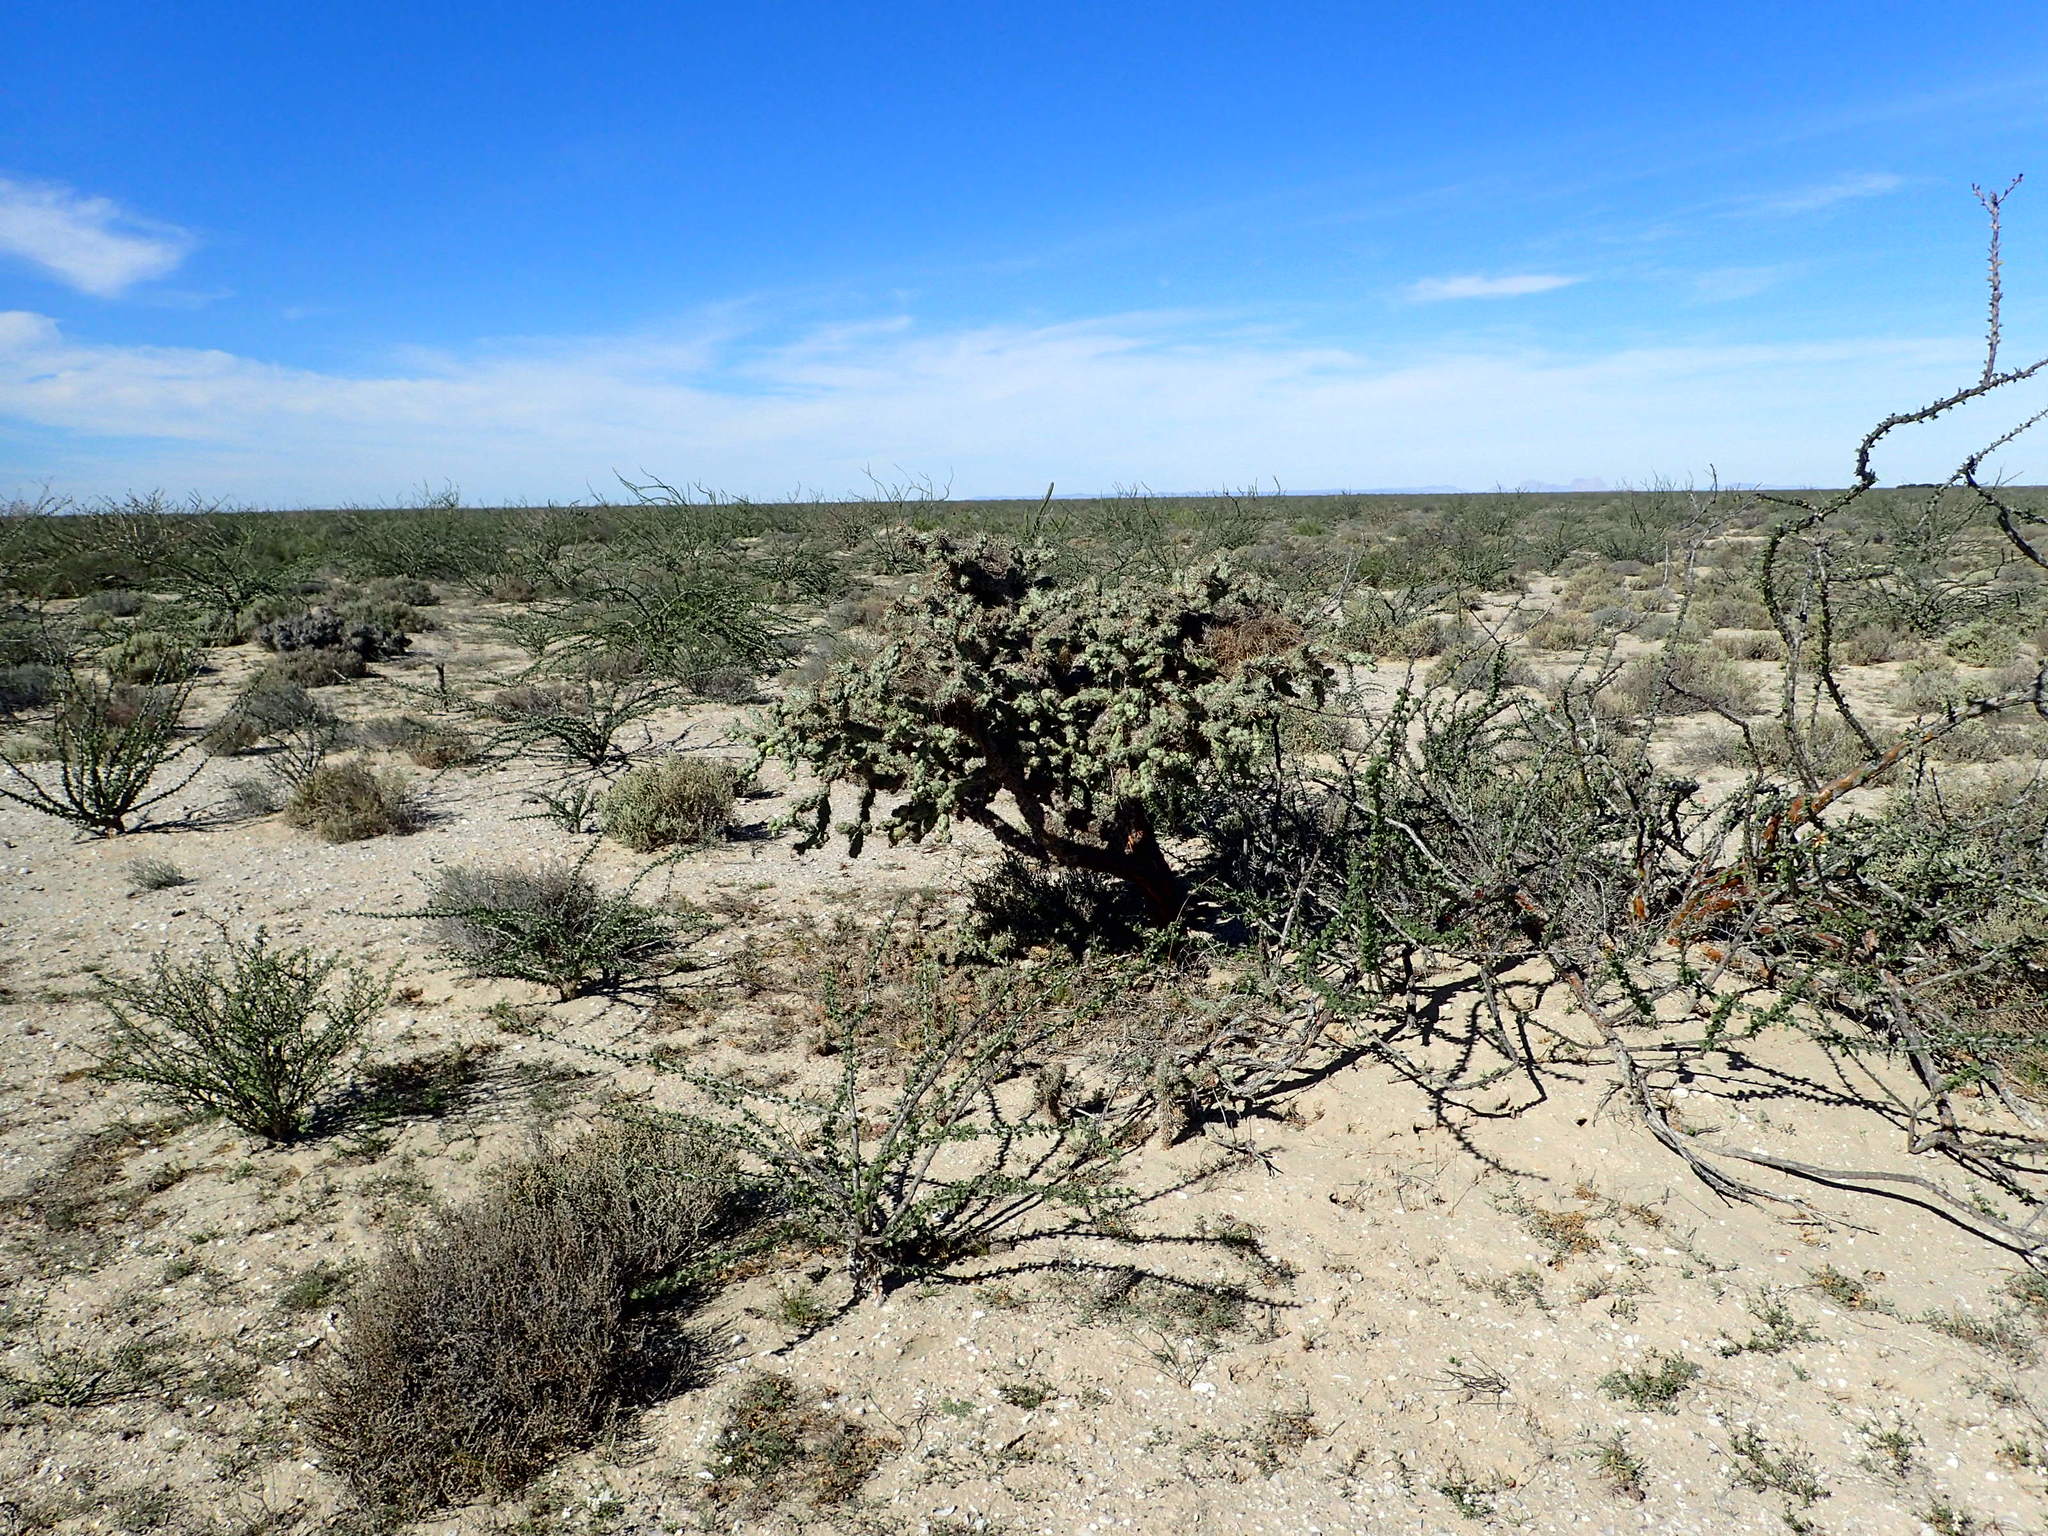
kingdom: Animalia
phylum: Chordata
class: Aves
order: Passeriformes
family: Troglodytidae
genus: Campylorhynchus
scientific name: Campylorhynchus brunneicapillus
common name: Cactus wren
